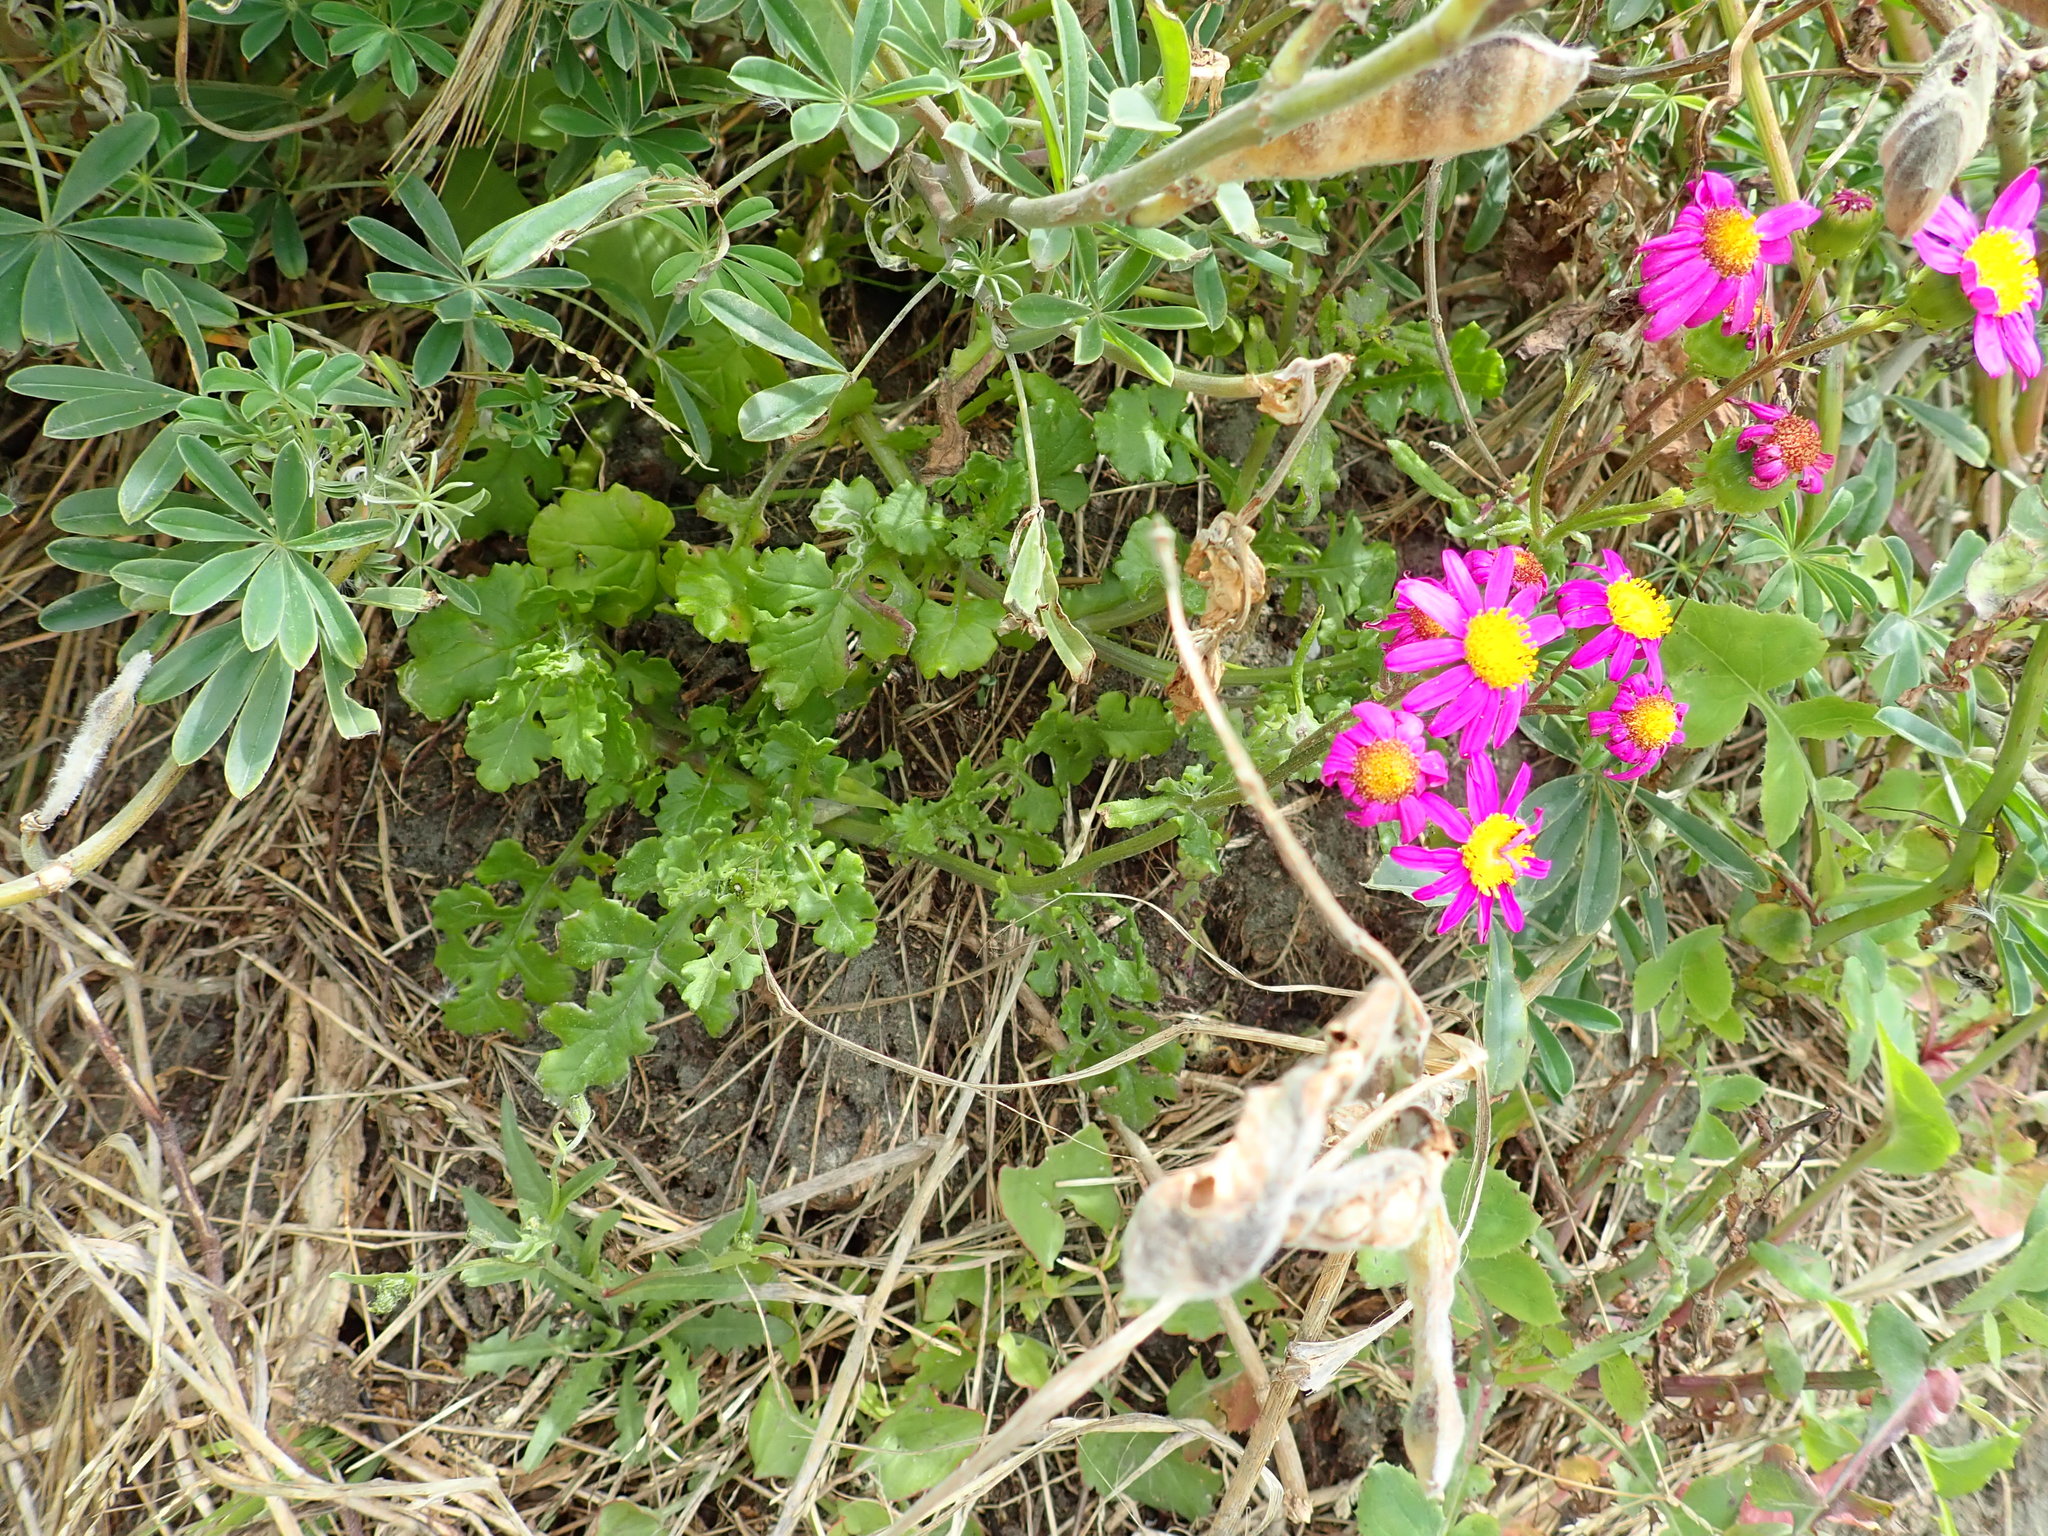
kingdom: Plantae
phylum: Tracheophyta
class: Magnoliopsida
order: Asterales
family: Asteraceae
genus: Senecio
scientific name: Senecio elegans
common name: Purple groundsel
